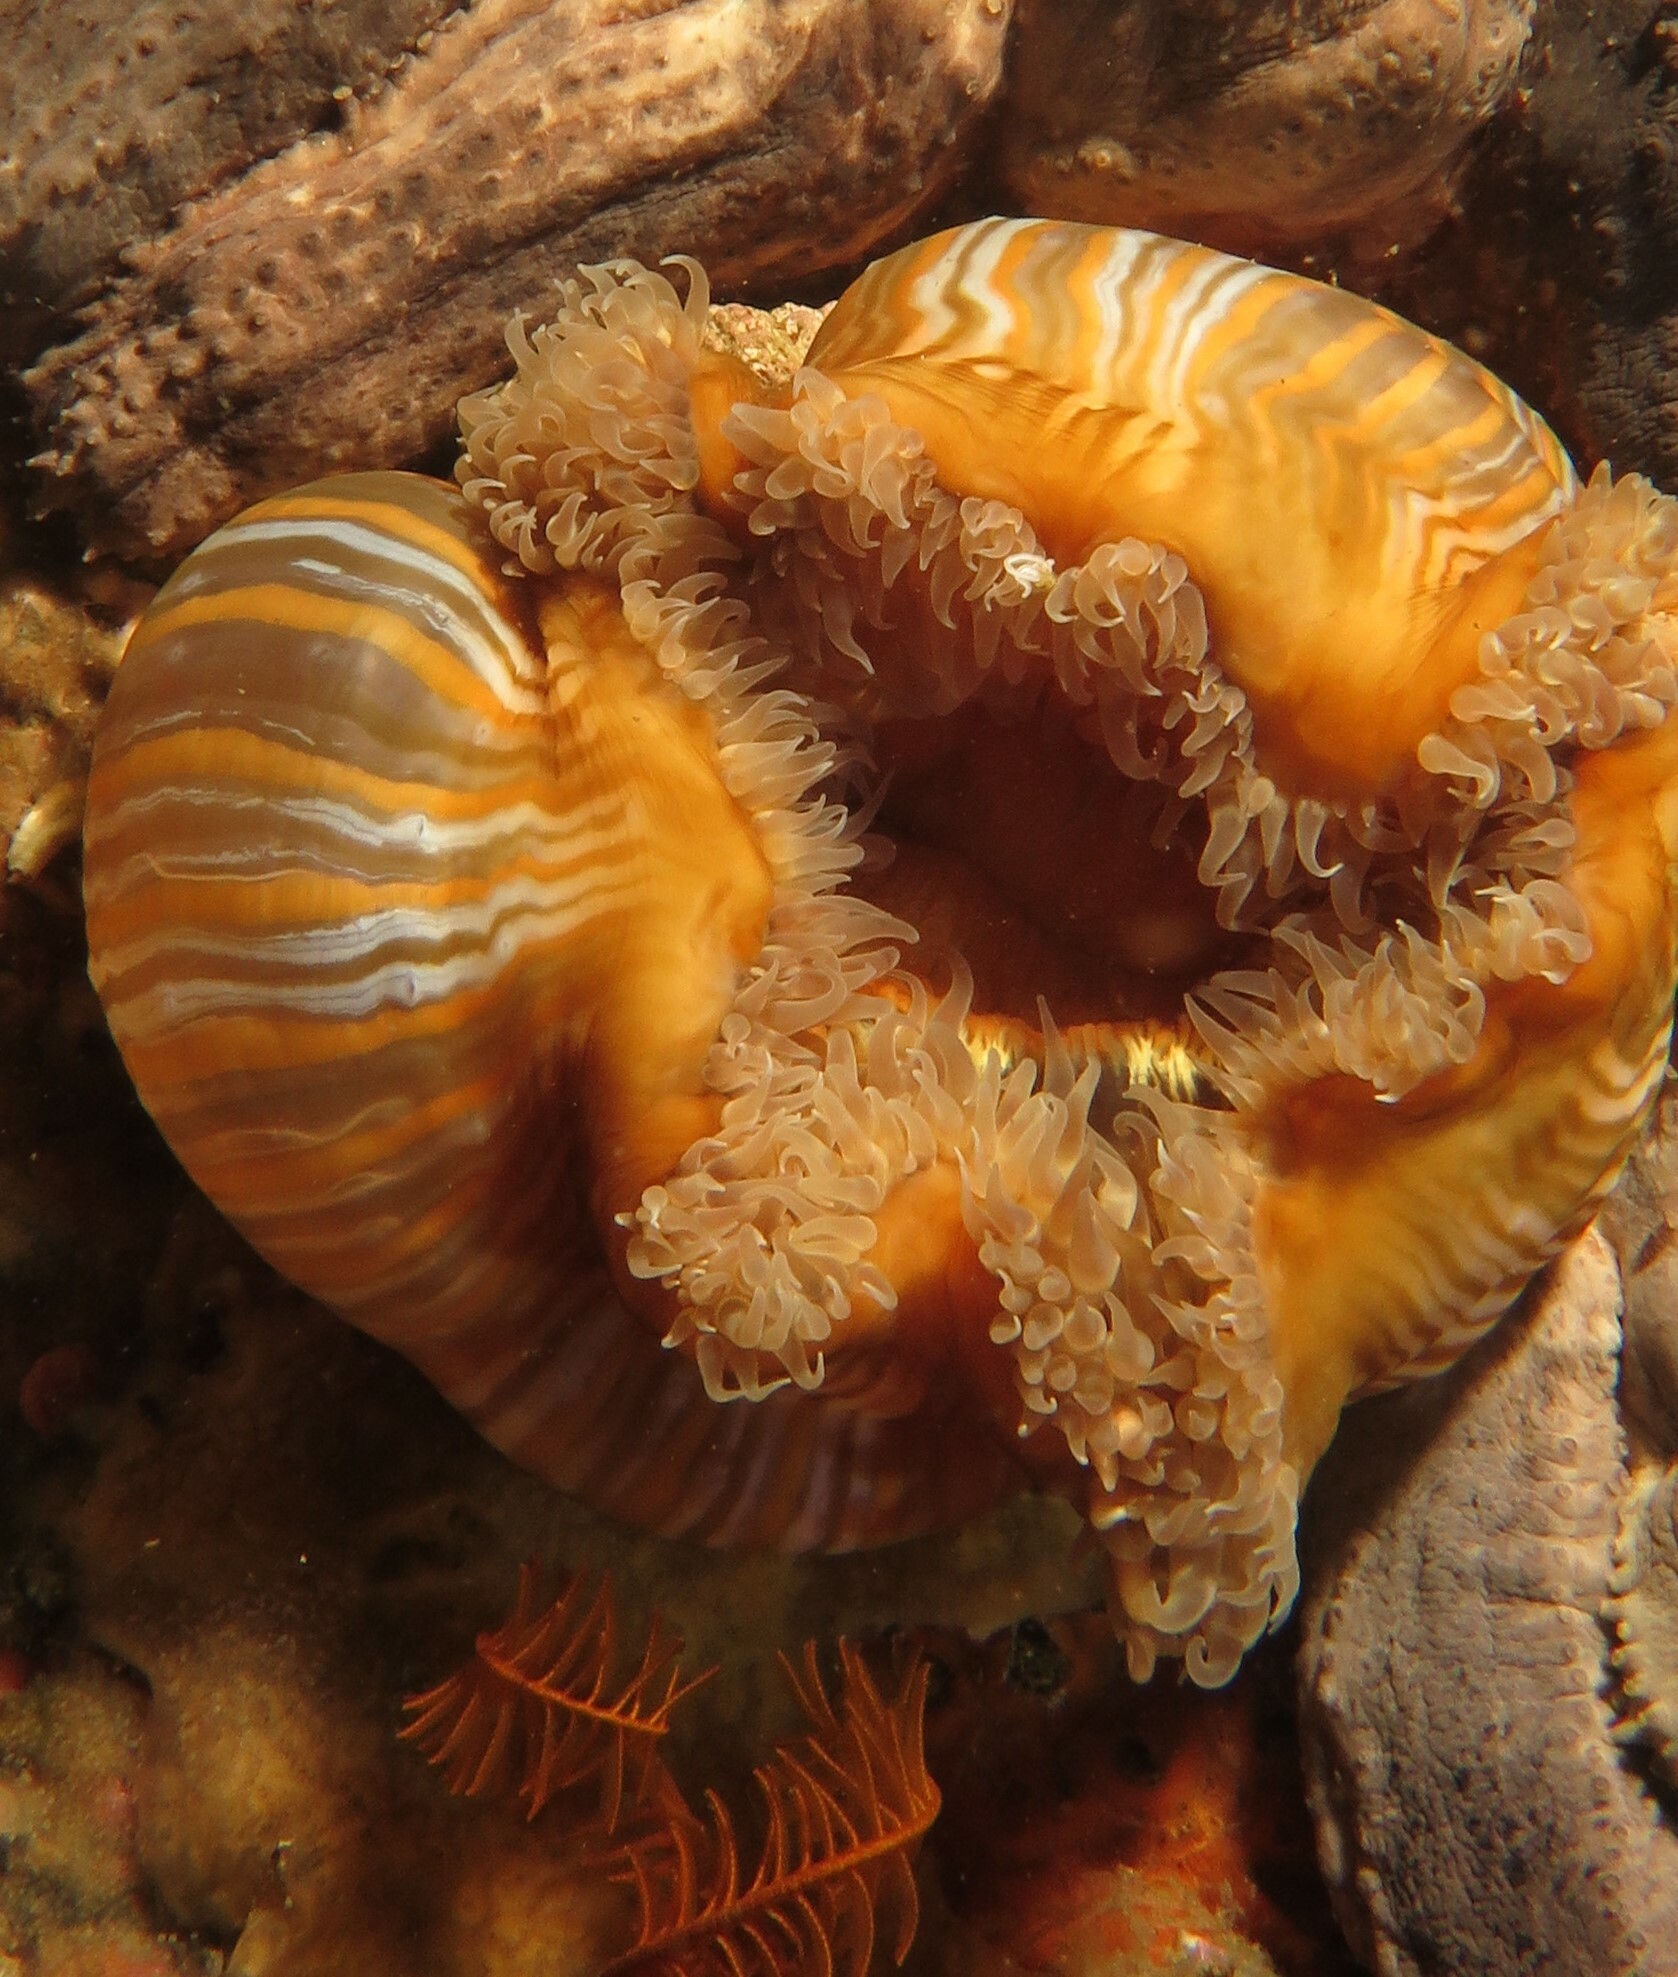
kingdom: Animalia
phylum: Cnidaria
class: Anthozoa
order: Actiniaria
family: Sagartiidae
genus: Anthothoe
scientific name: Anthothoe stimpsonii
